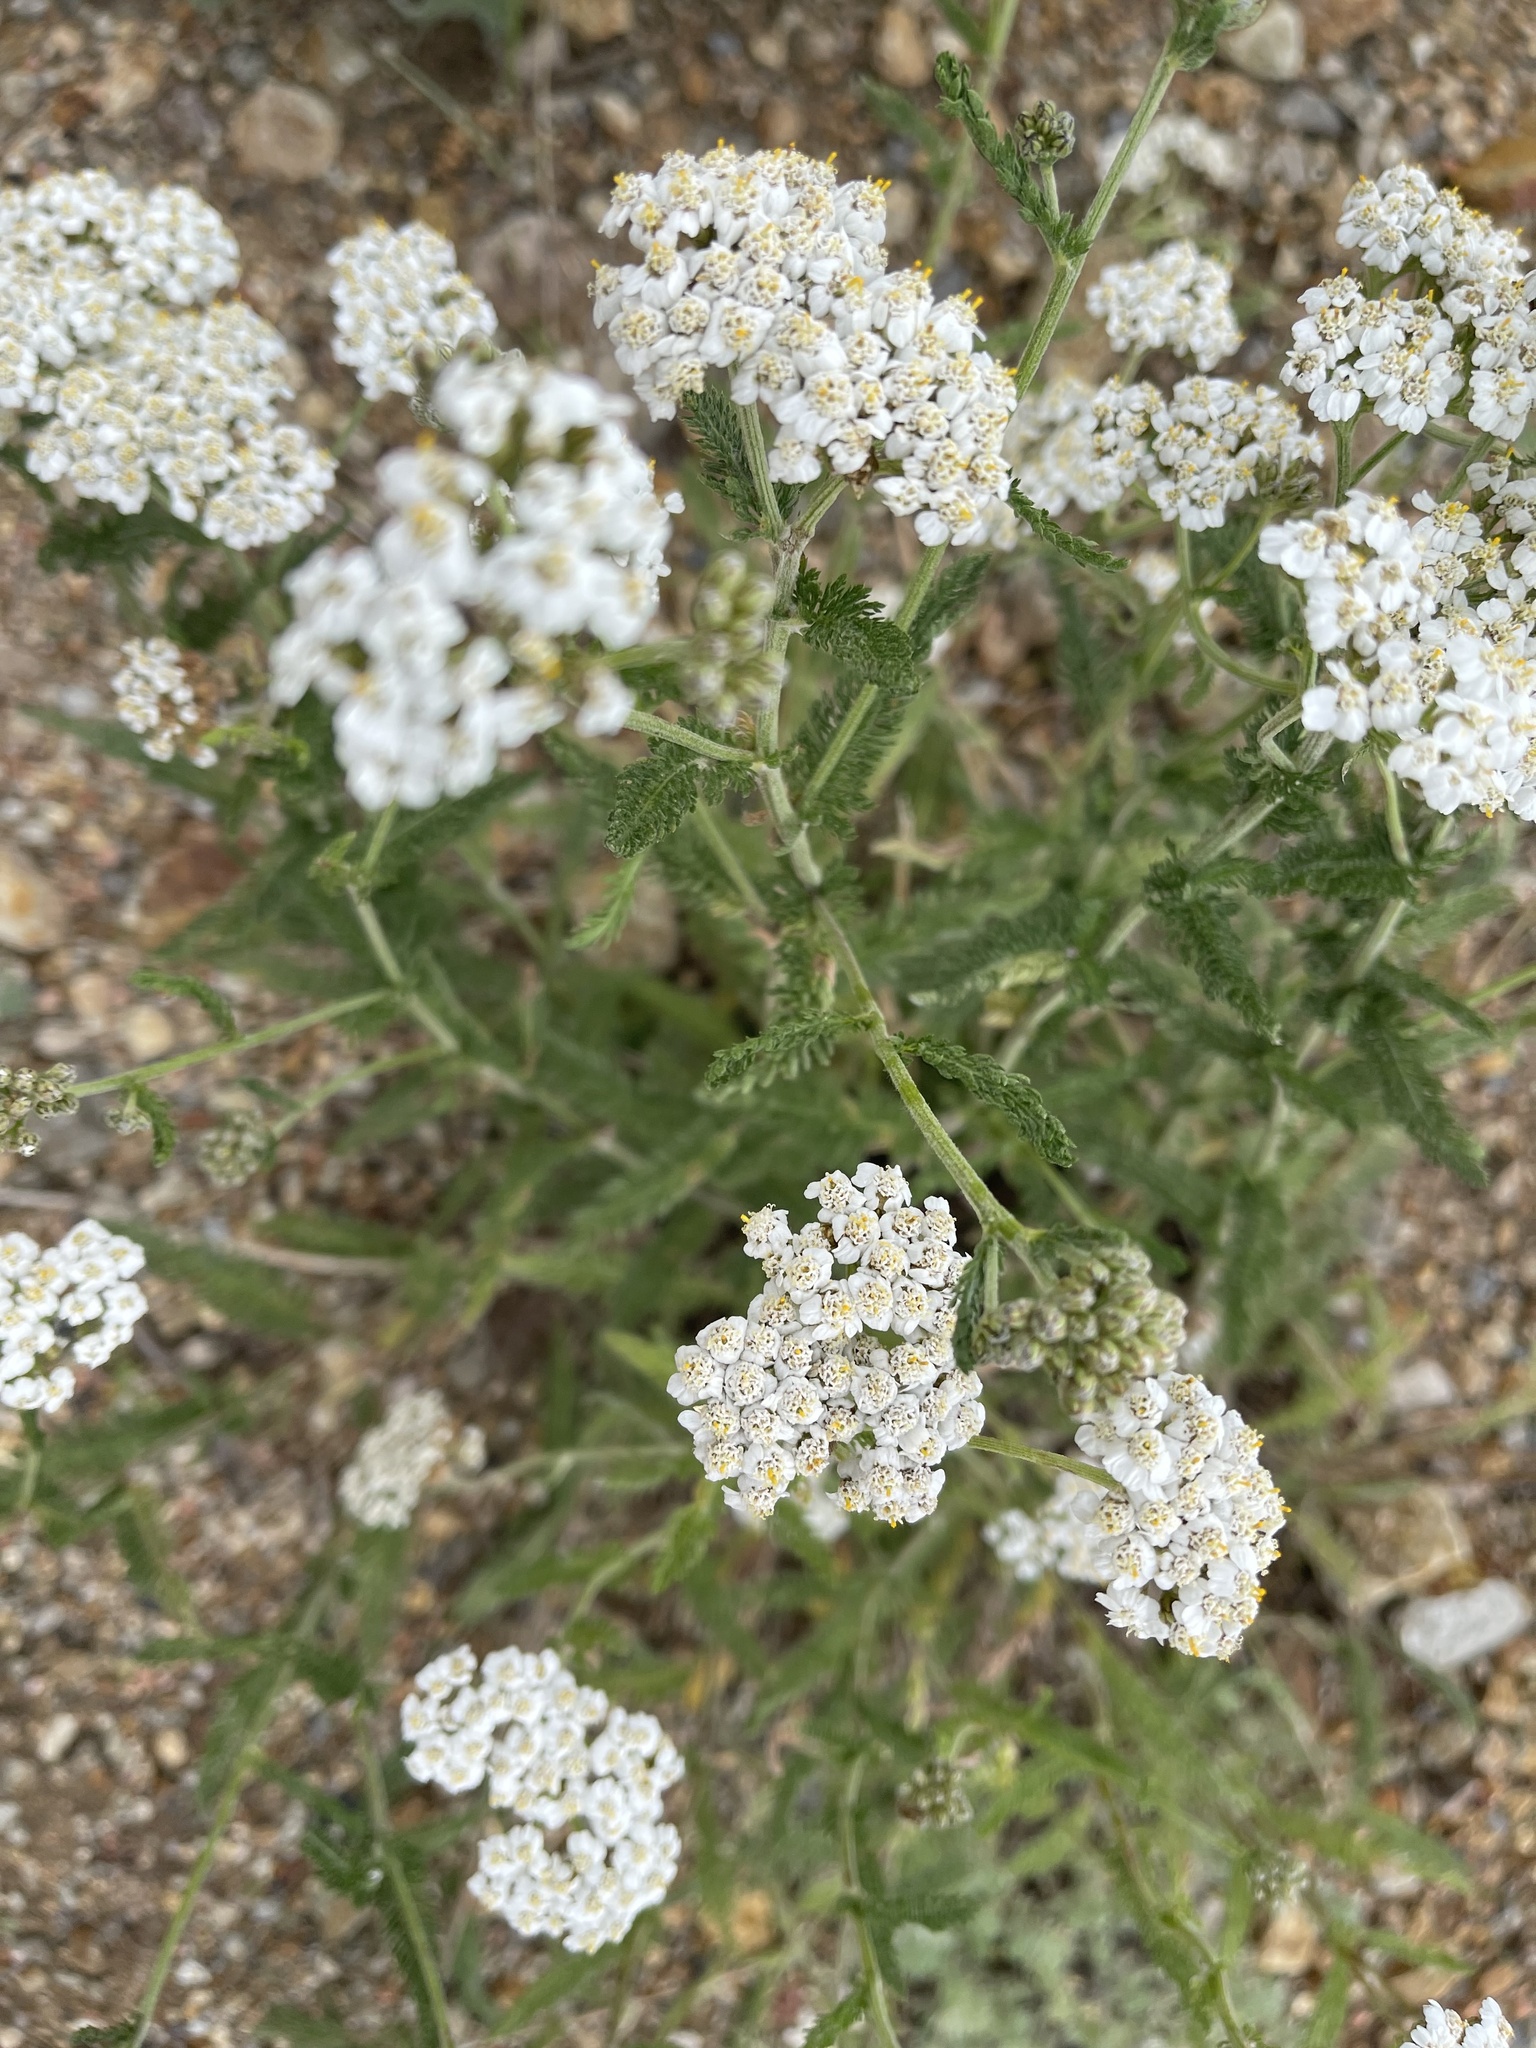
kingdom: Plantae
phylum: Tracheophyta
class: Magnoliopsida
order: Asterales
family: Asteraceae
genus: Achillea
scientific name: Achillea millefolium
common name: Yarrow
